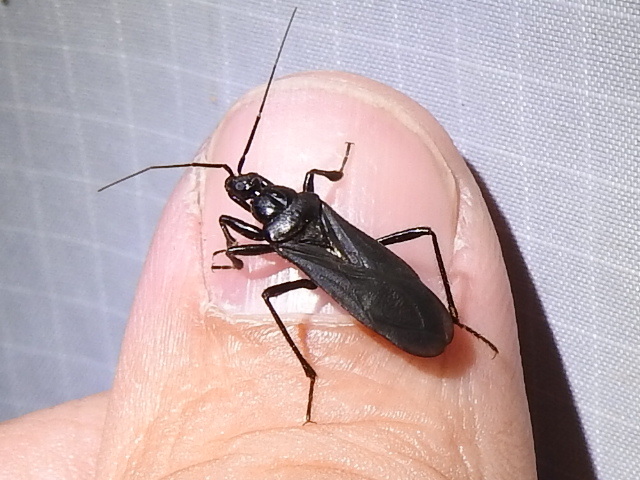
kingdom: Animalia
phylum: Arthropoda
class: Insecta
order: Hemiptera
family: Reduviidae
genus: Melanolestes
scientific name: Melanolestes picipes
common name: Assassin bug
